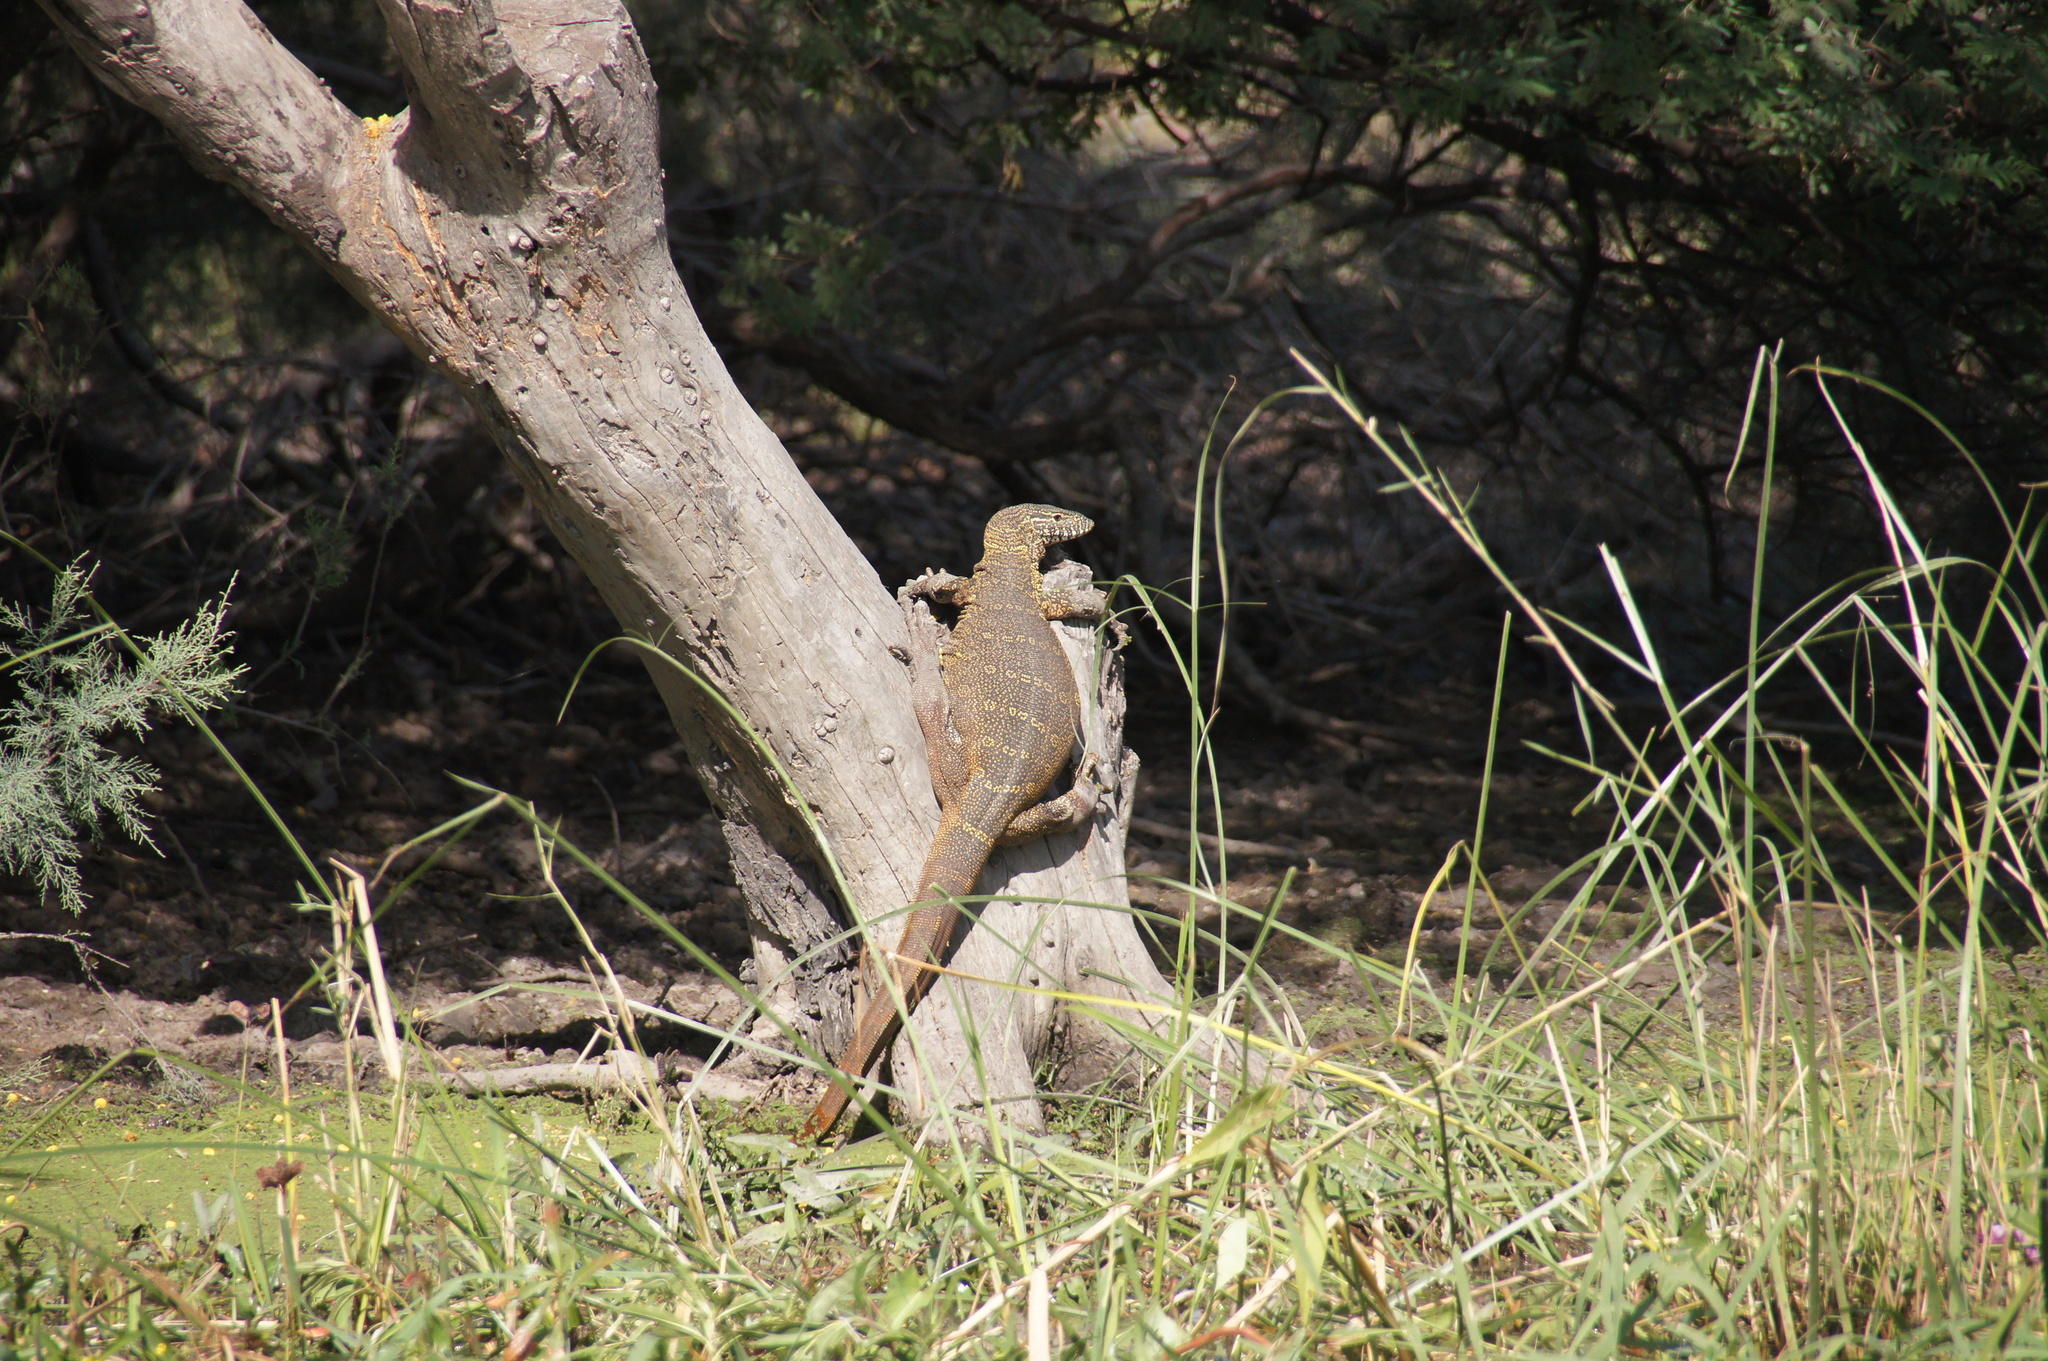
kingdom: Animalia
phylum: Chordata
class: Squamata
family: Varanidae
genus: Varanus
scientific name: Varanus niloticus
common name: Nile monitor
